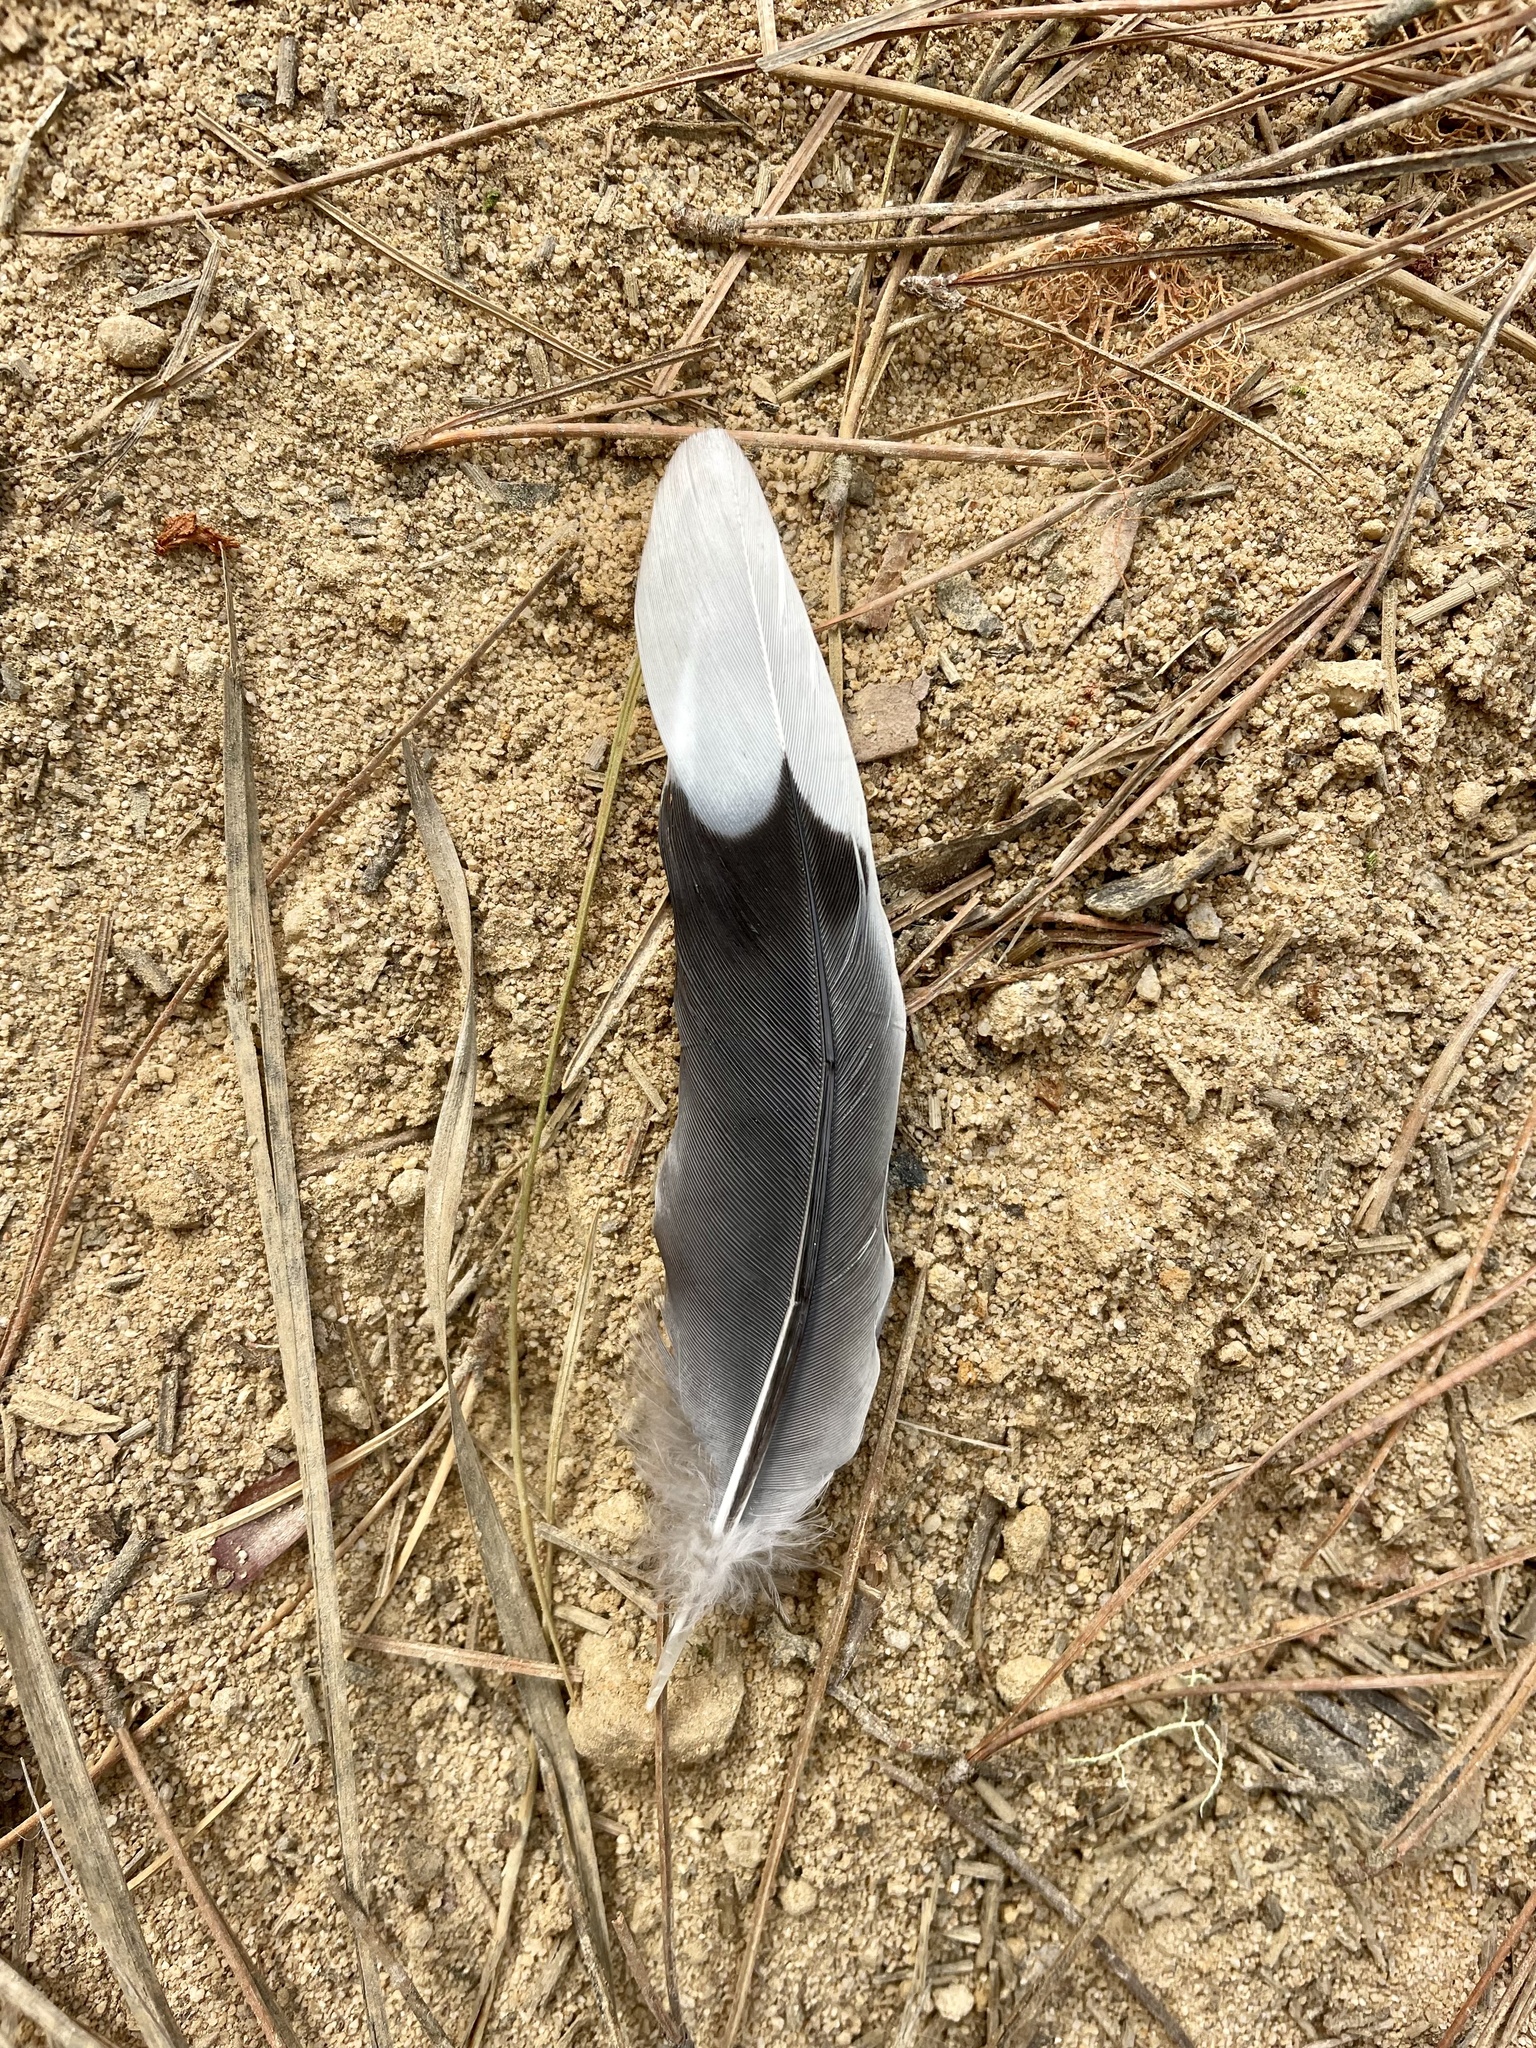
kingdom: Animalia
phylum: Chordata
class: Aves
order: Columbiformes
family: Columbidae
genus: Zenaida
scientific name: Zenaida macroura
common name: Mourning dove
